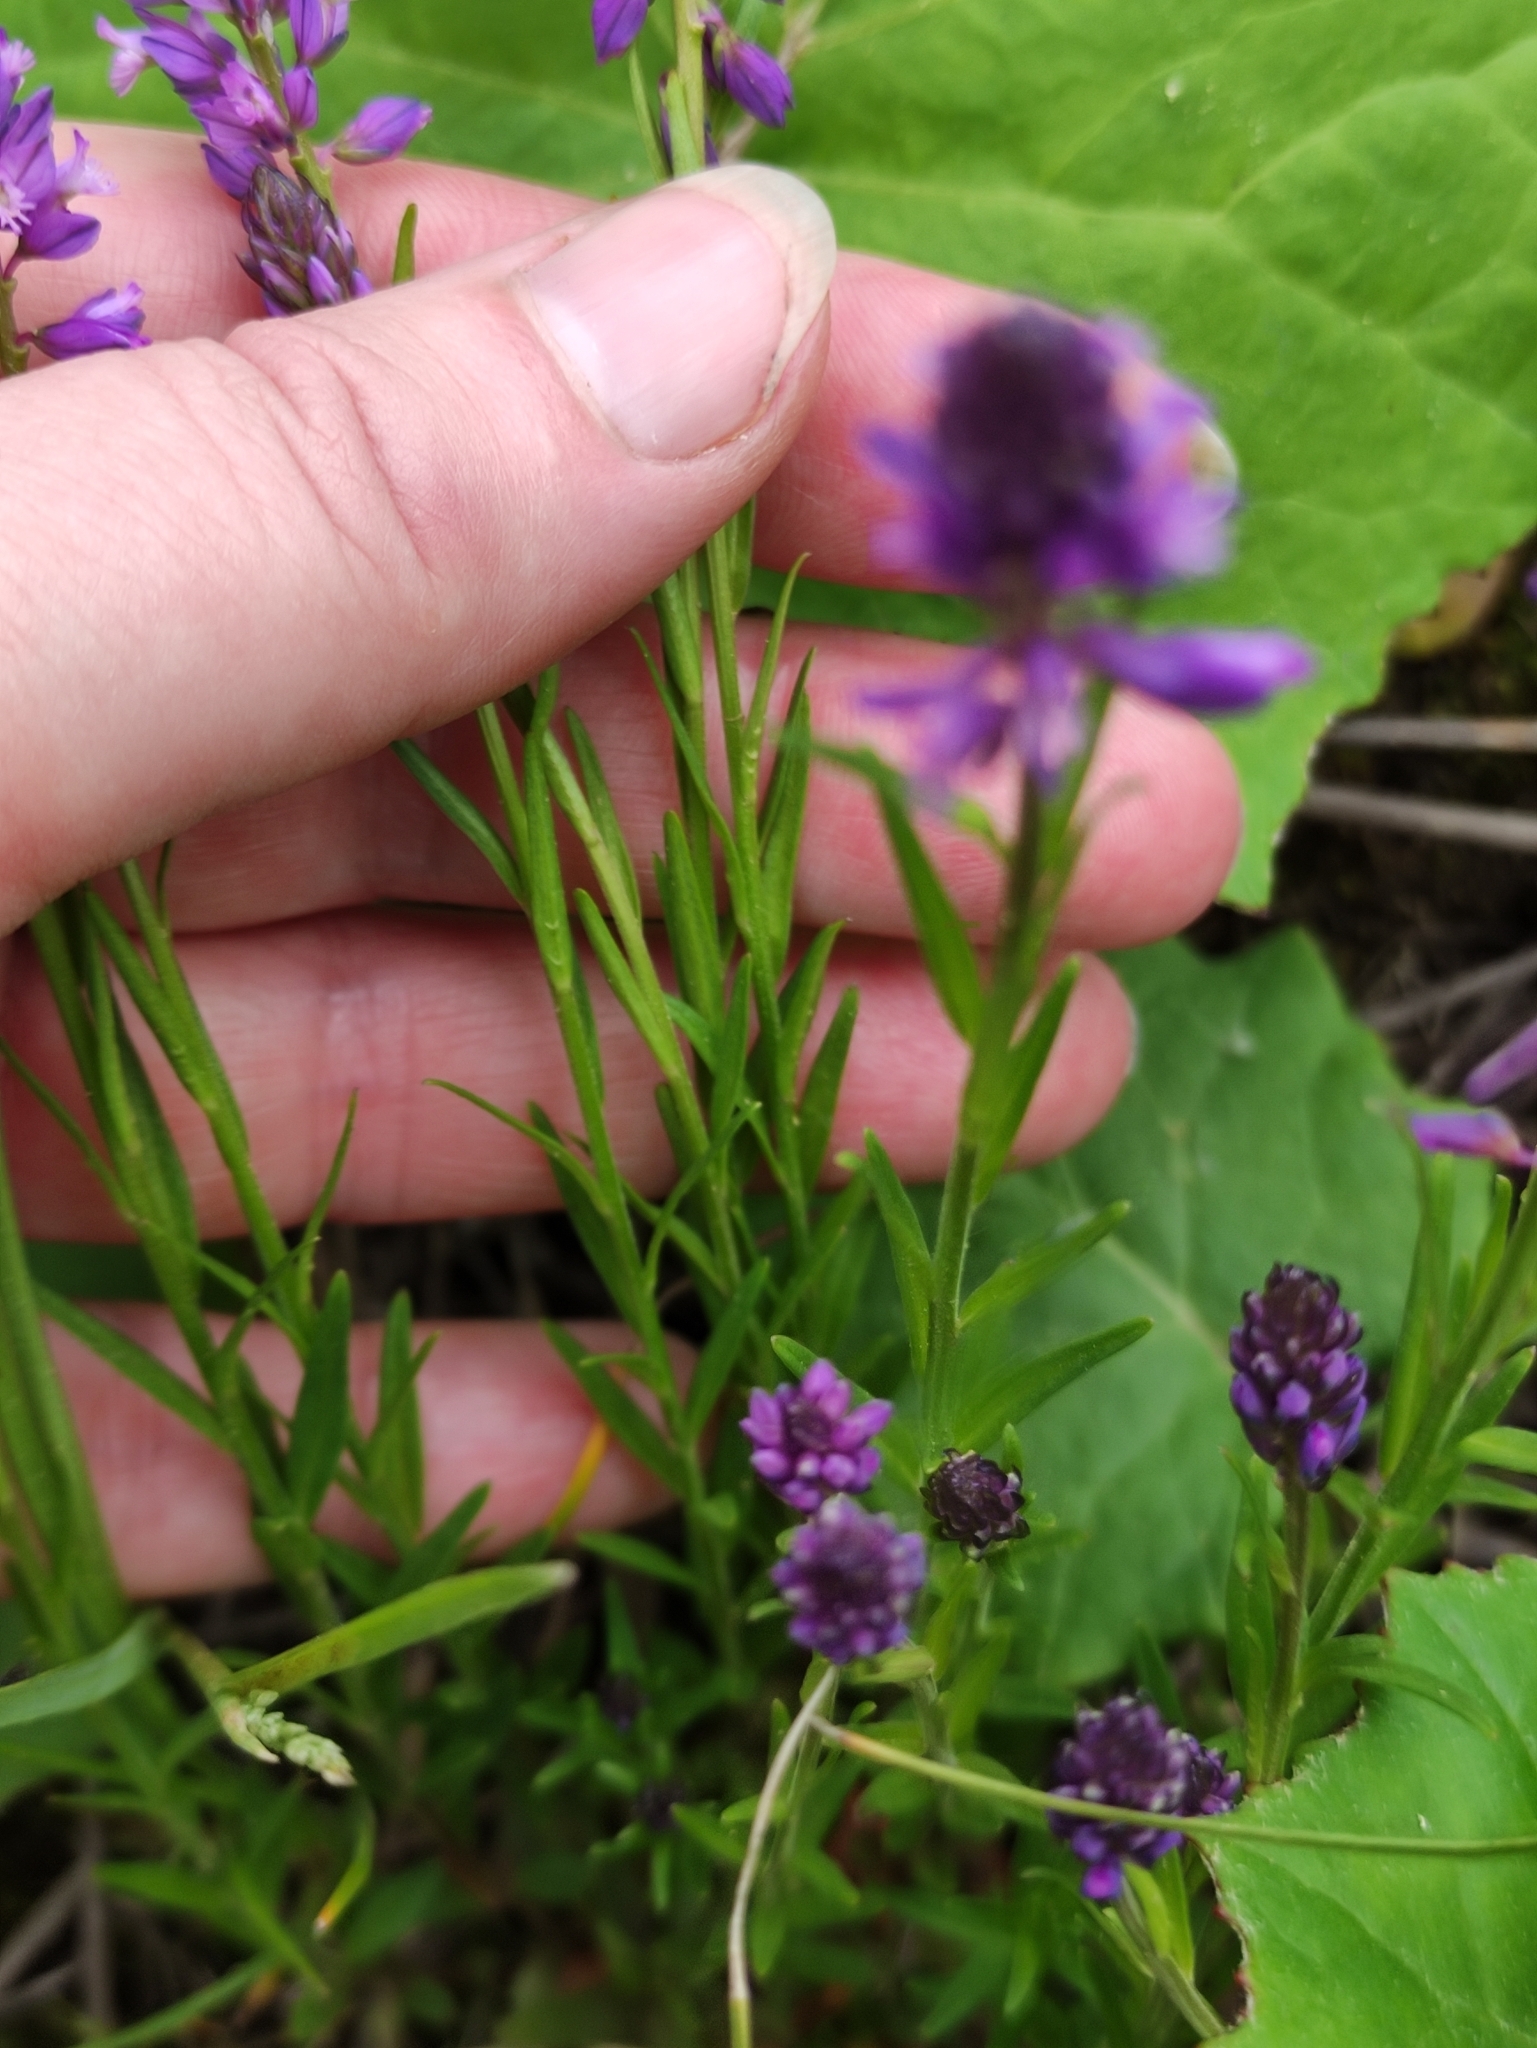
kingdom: Plantae
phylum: Tracheophyta
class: Magnoliopsida
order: Fabales
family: Polygalaceae
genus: Polygala
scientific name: Polygala comosa
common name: Tufted milkwort
